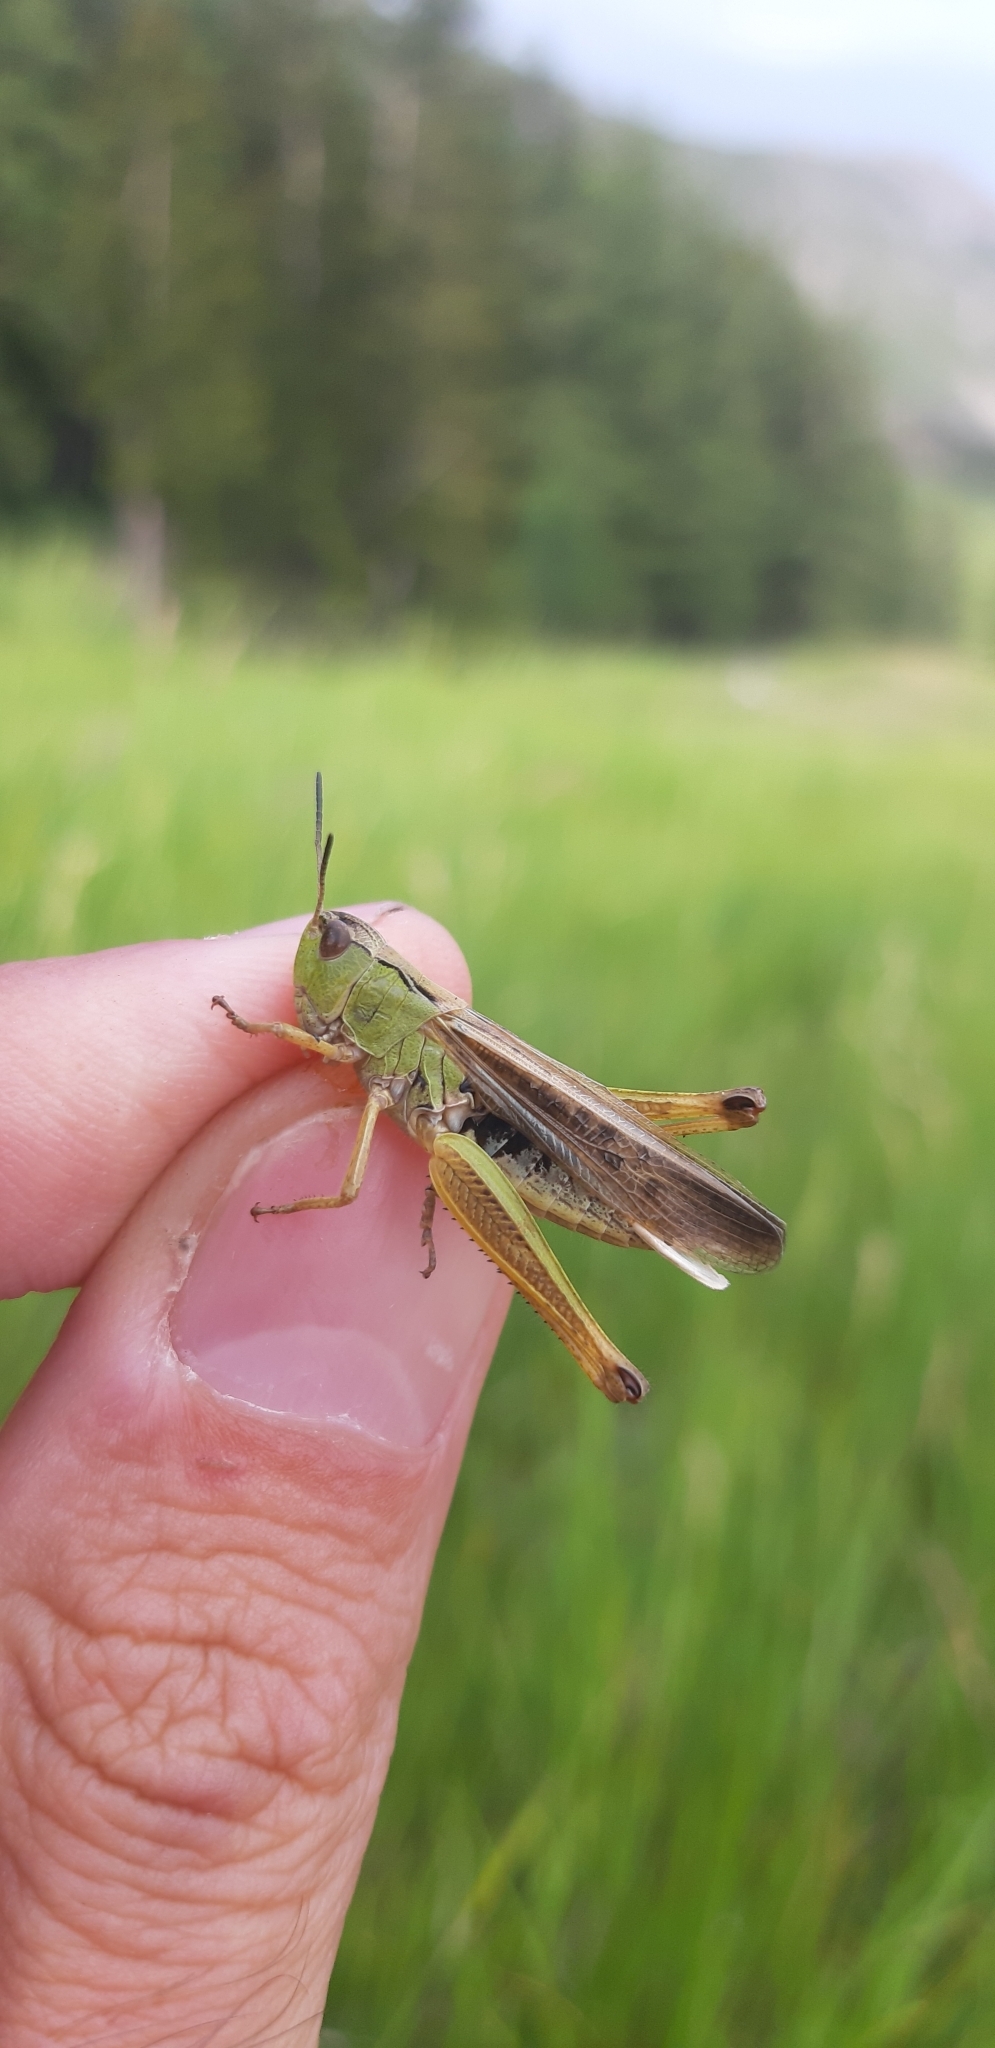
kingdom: Animalia
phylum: Arthropoda
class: Insecta
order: Orthoptera
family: Acrididae
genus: Stauroderus
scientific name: Stauroderus scalaris
